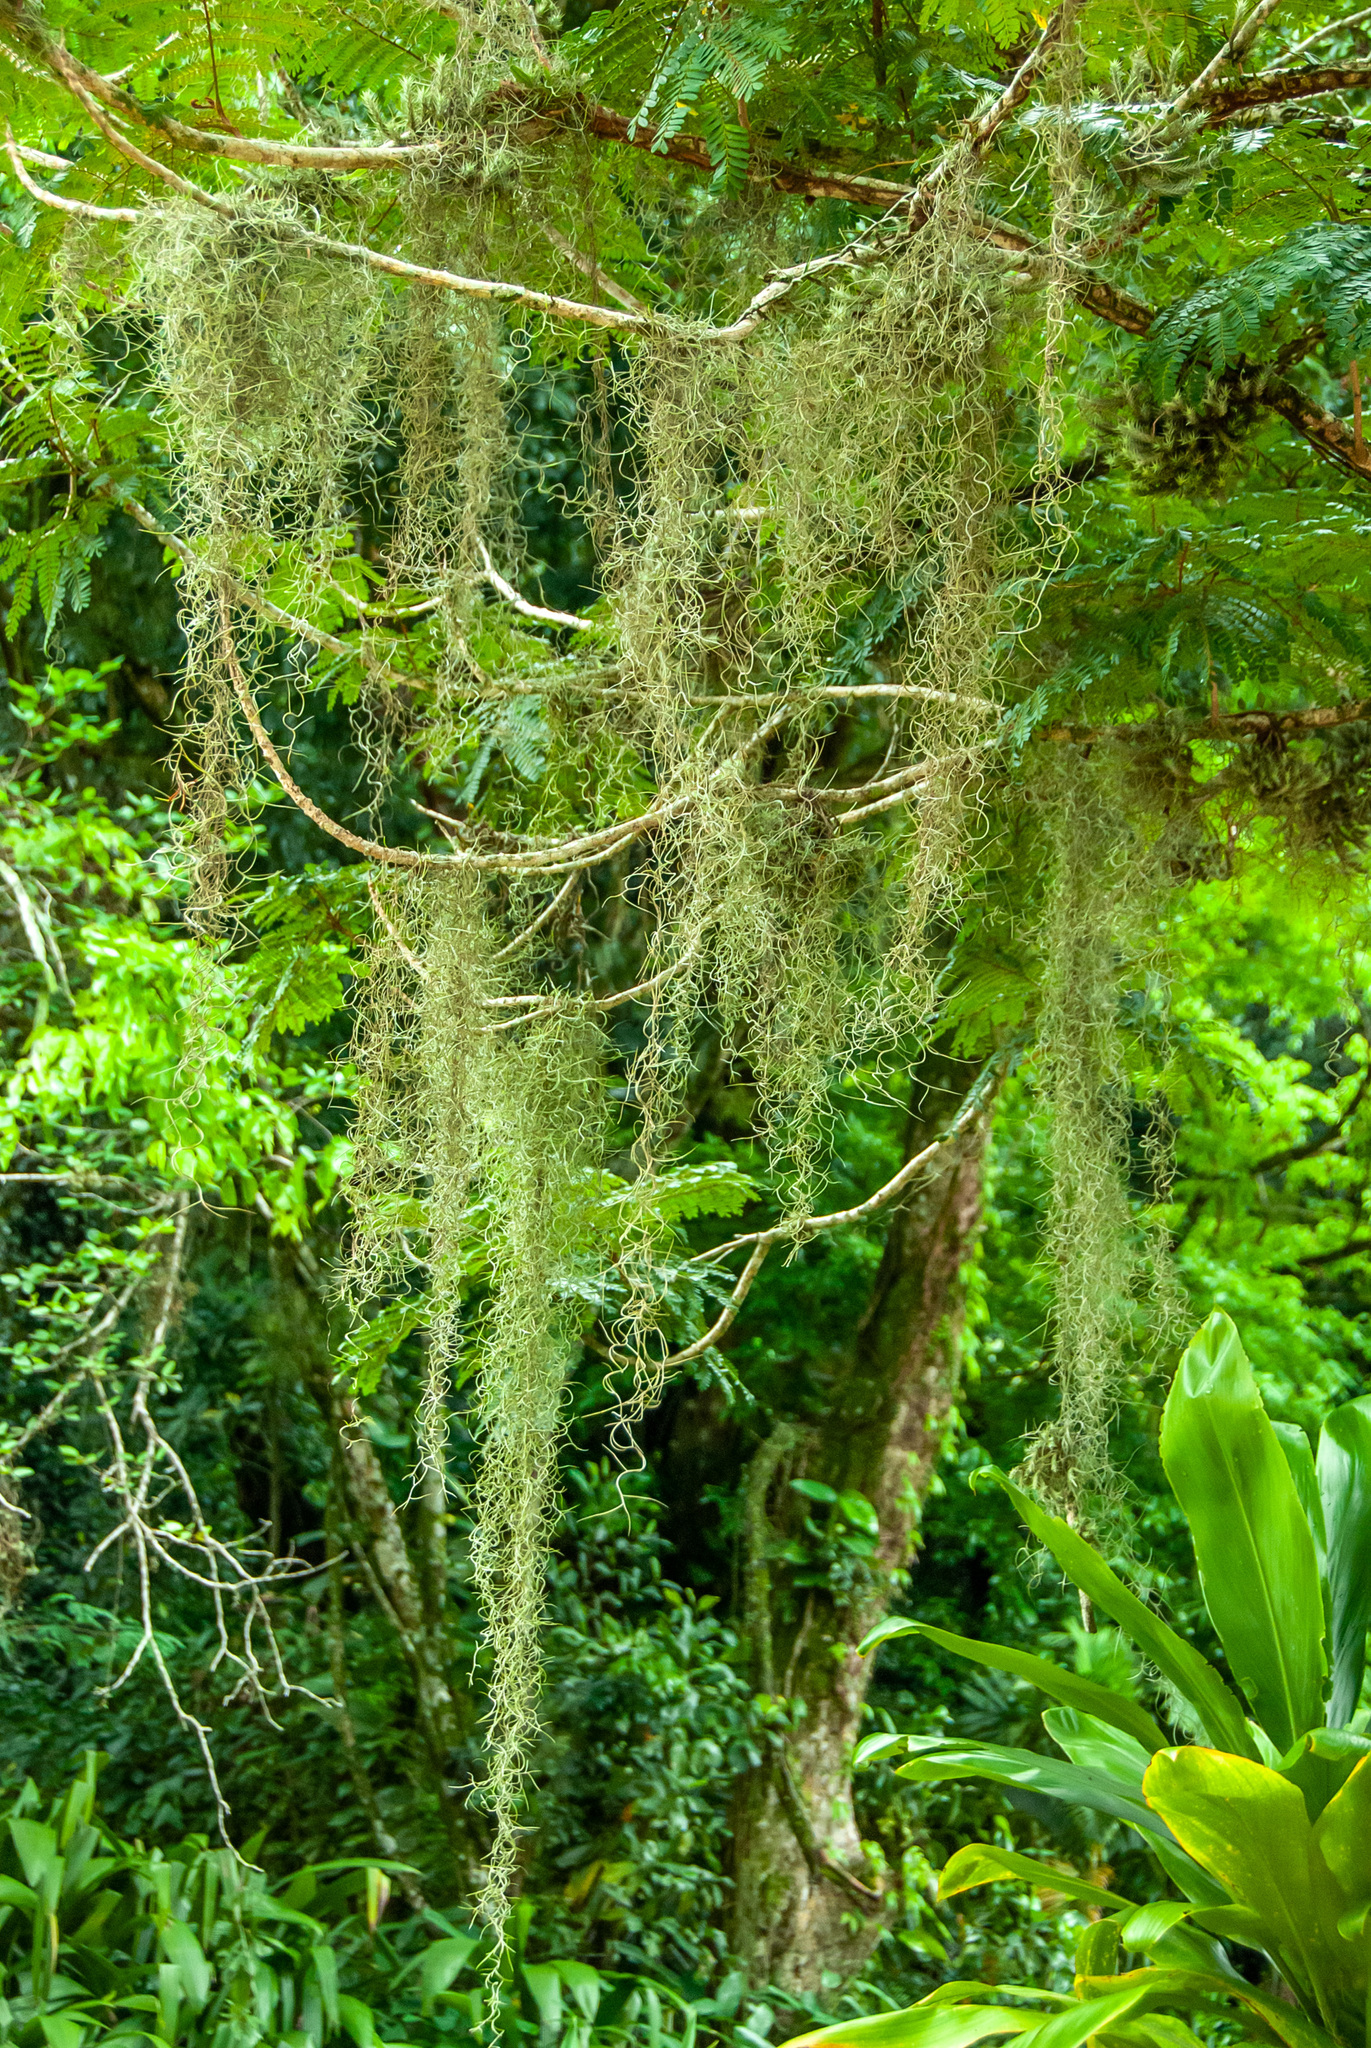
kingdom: Plantae
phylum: Tracheophyta
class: Liliopsida
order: Poales
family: Bromeliaceae
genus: Tillandsia
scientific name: Tillandsia usneoides
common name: Spanish moss
